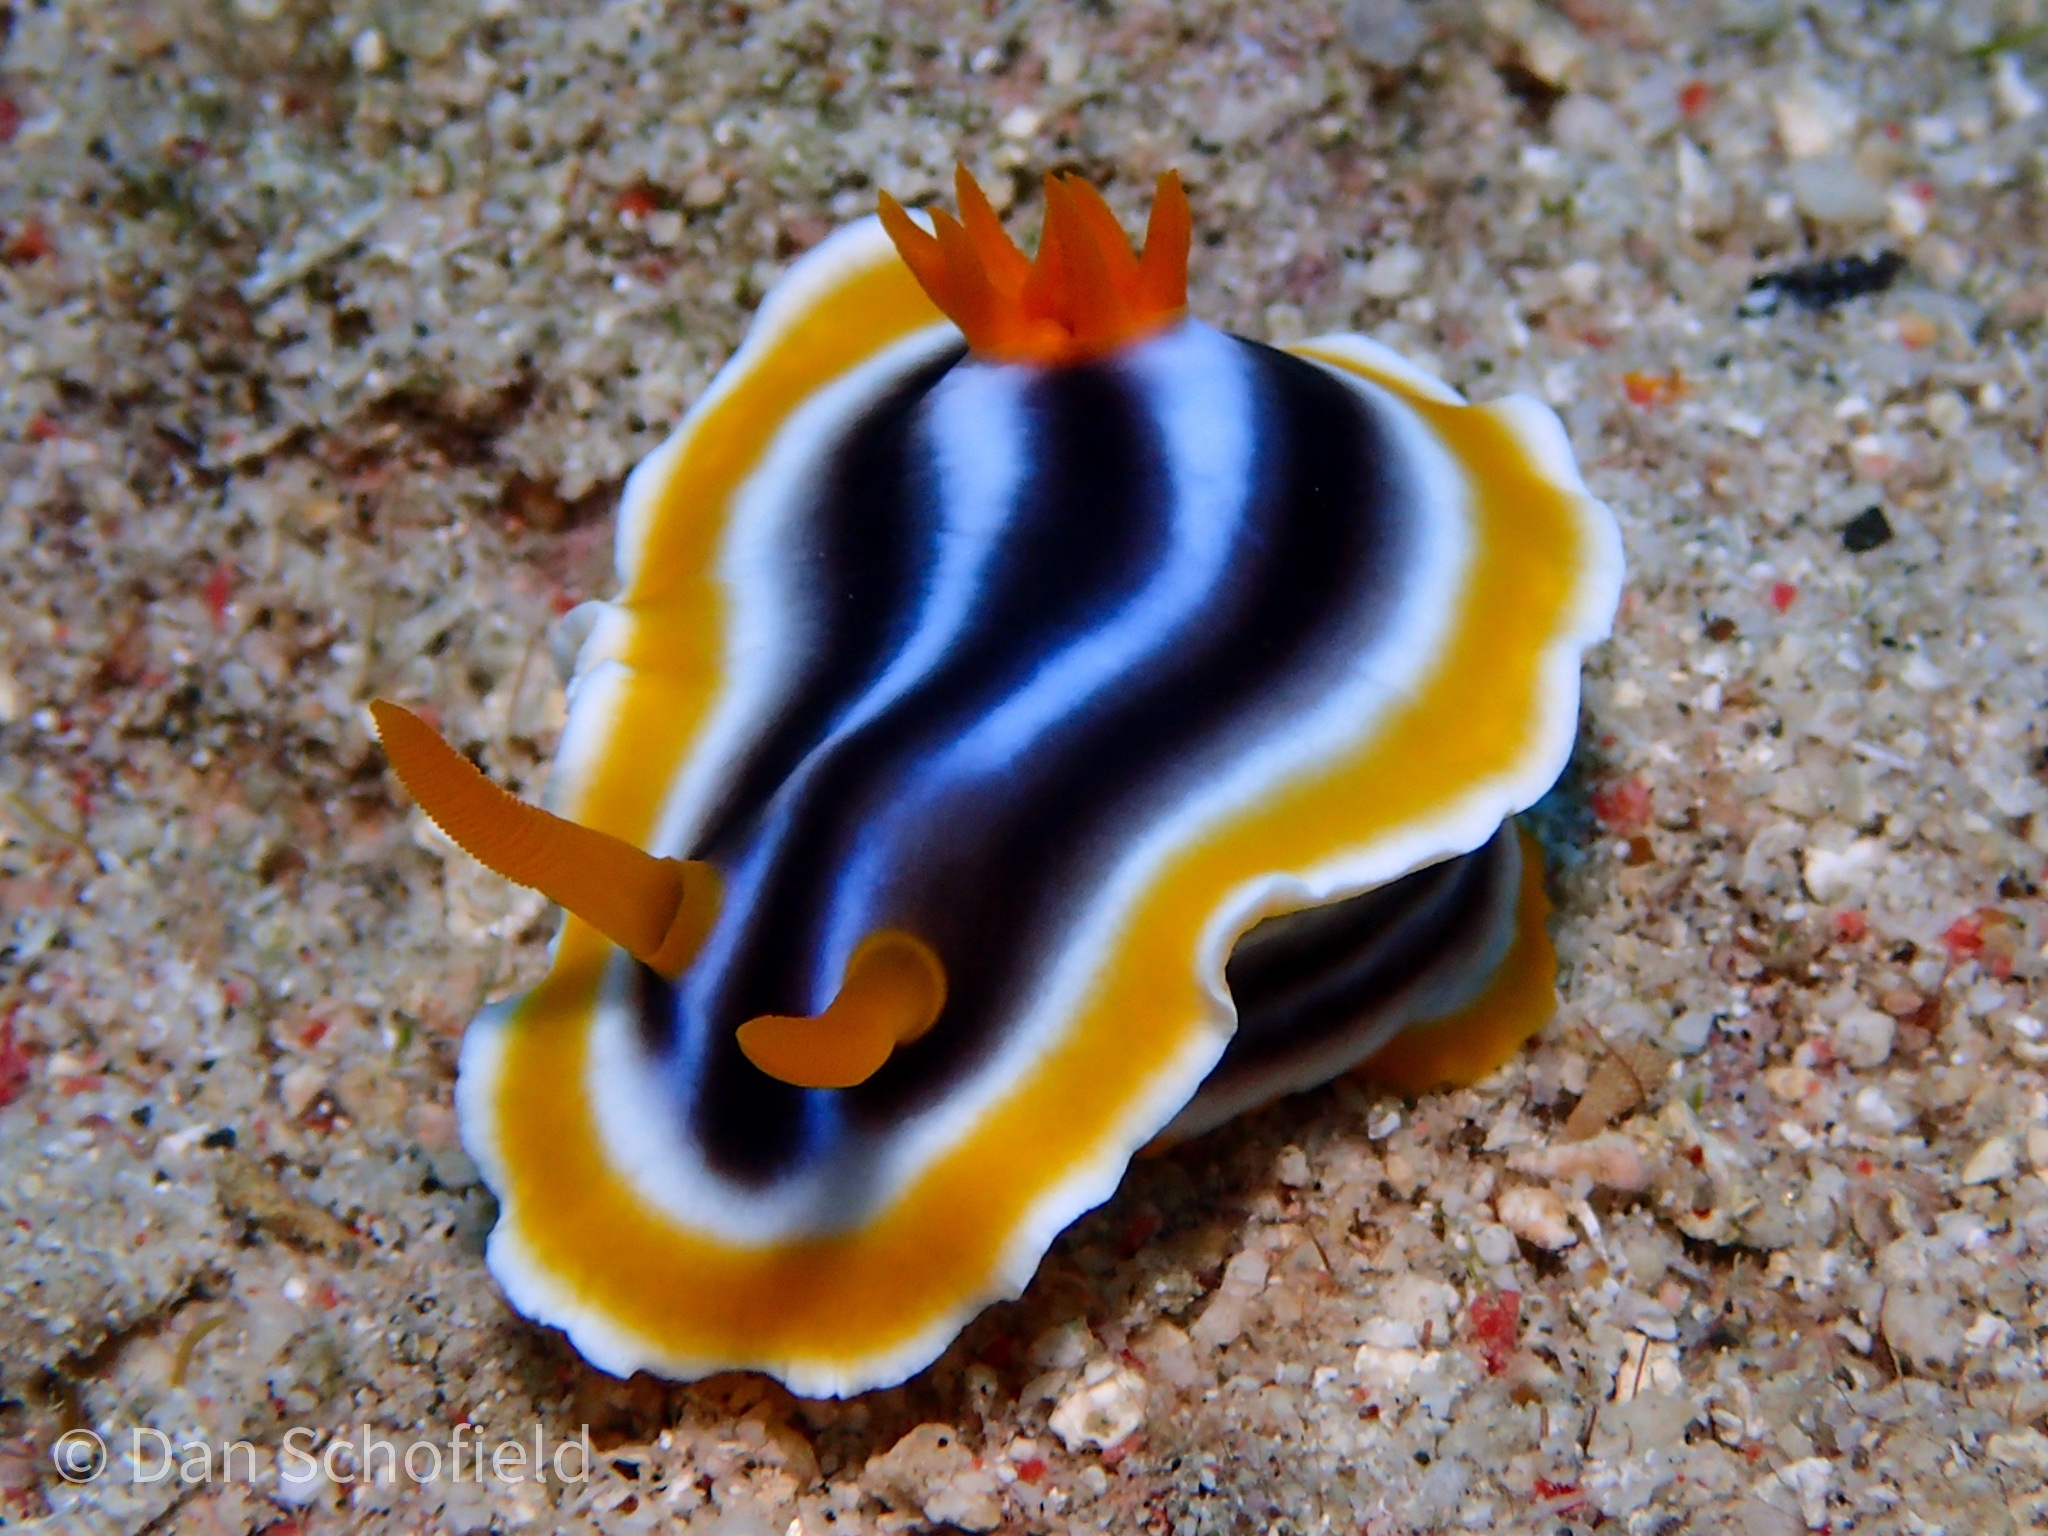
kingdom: Animalia
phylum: Mollusca
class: Gastropoda
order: Nudibranchia
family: Chromodorididae
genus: Chromodoris
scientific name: Chromodoris magnifica
